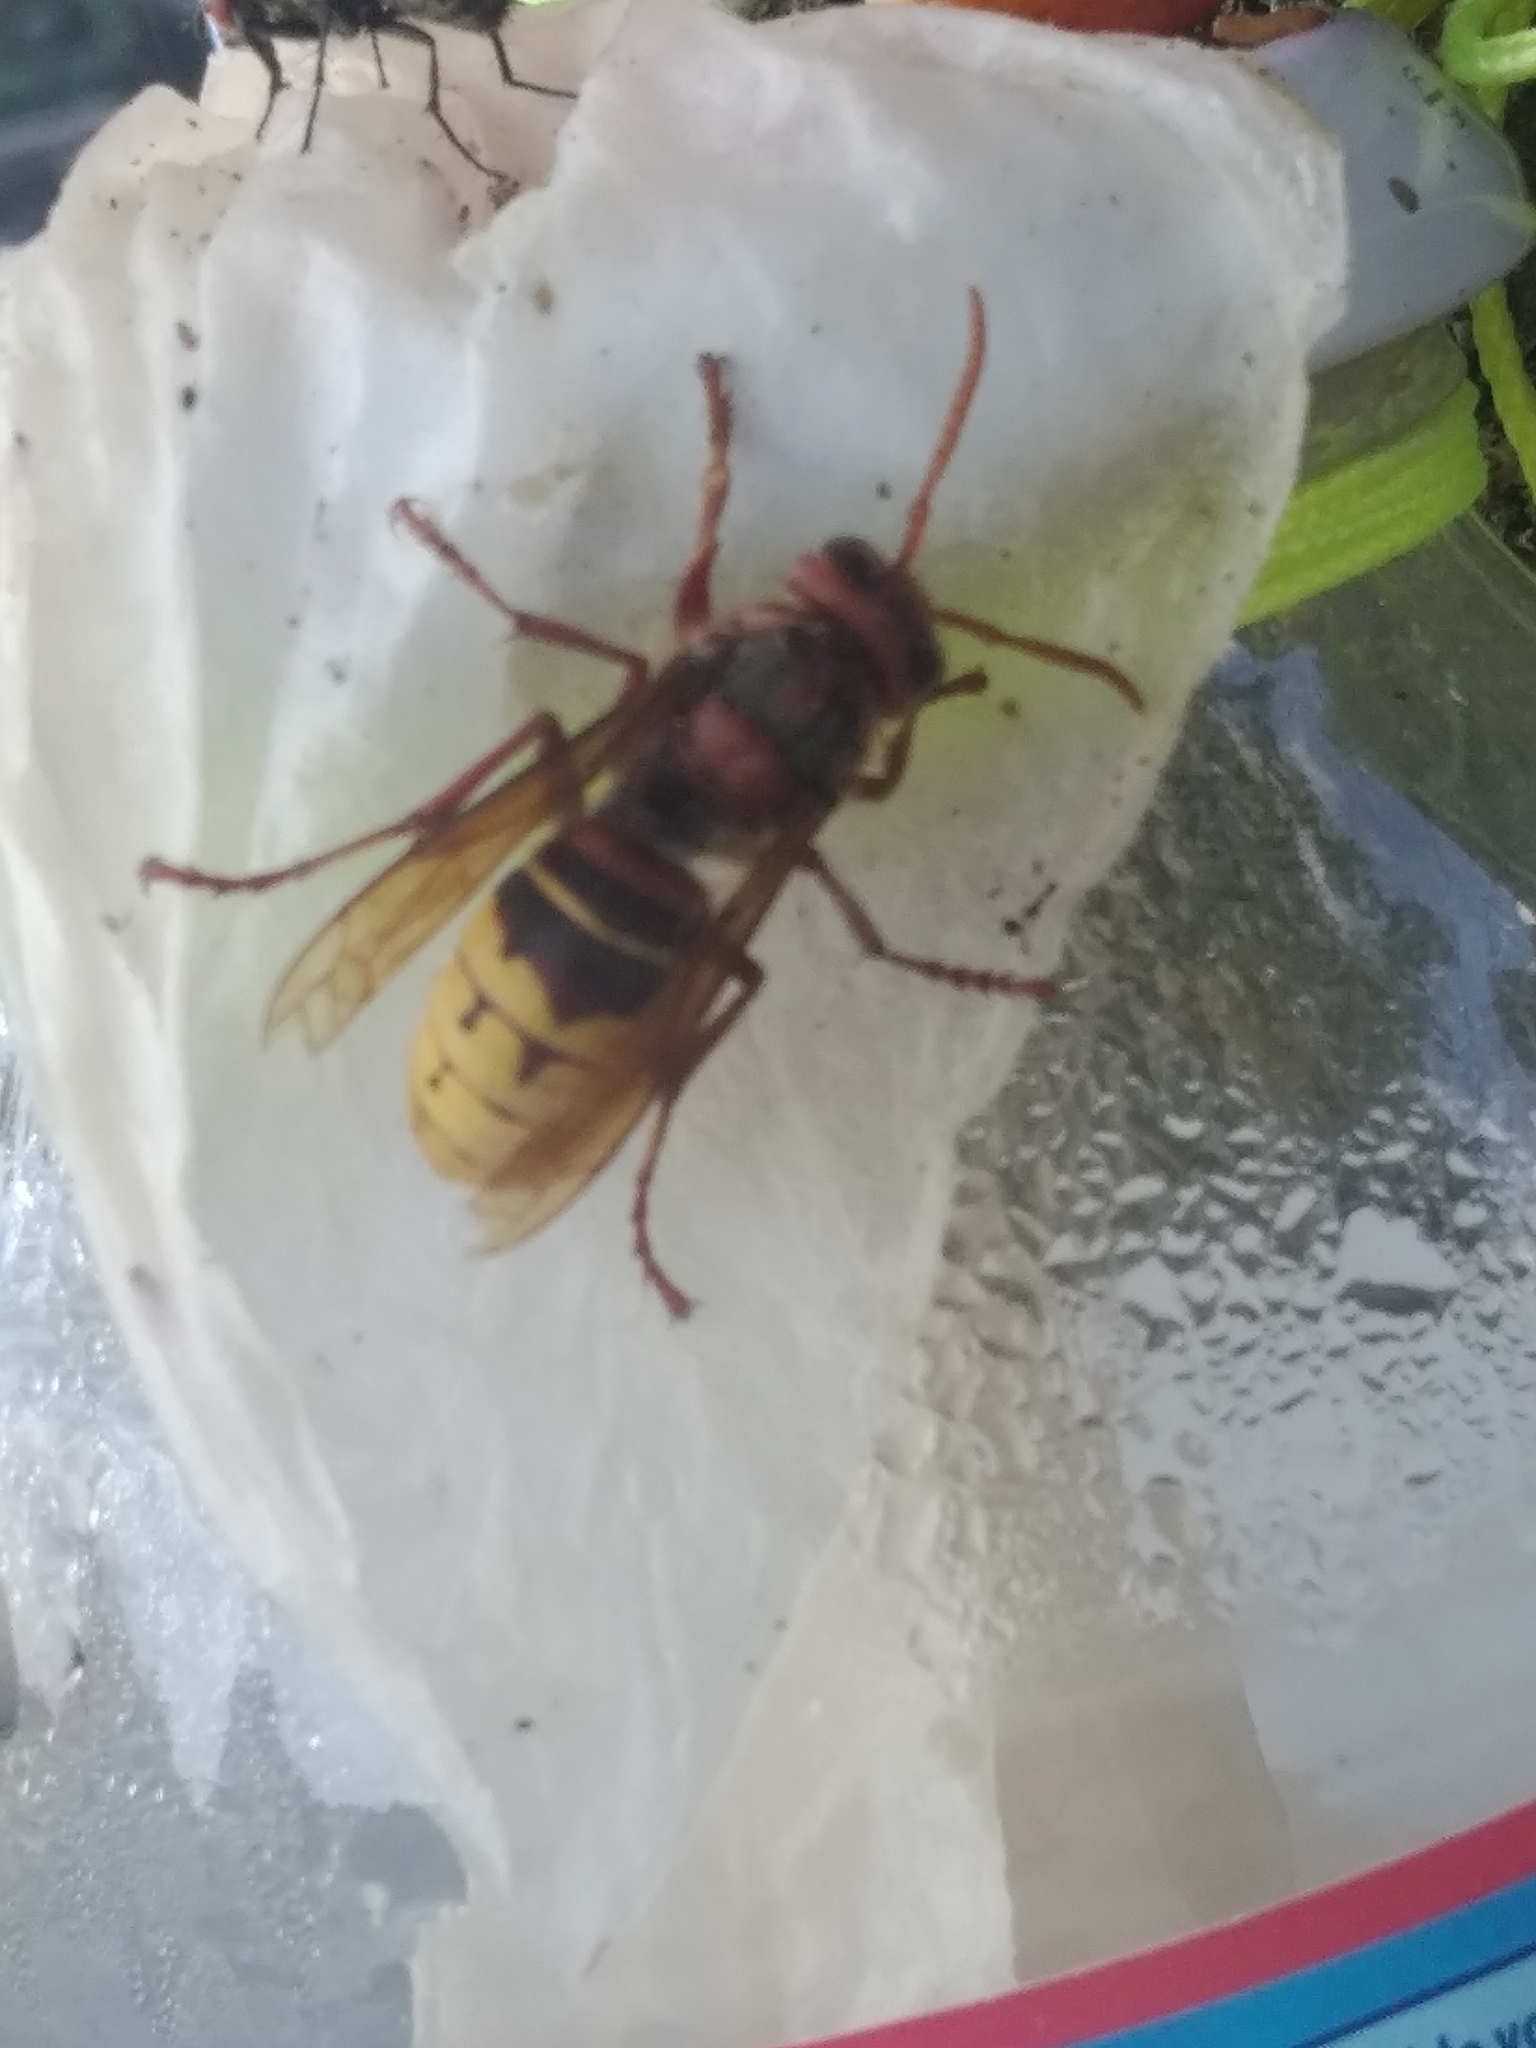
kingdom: Animalia
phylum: Arthropoda
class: Insecta
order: Hymenoptera
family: Vespidae
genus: Vespa
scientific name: Vespa crabro
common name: Hornet
